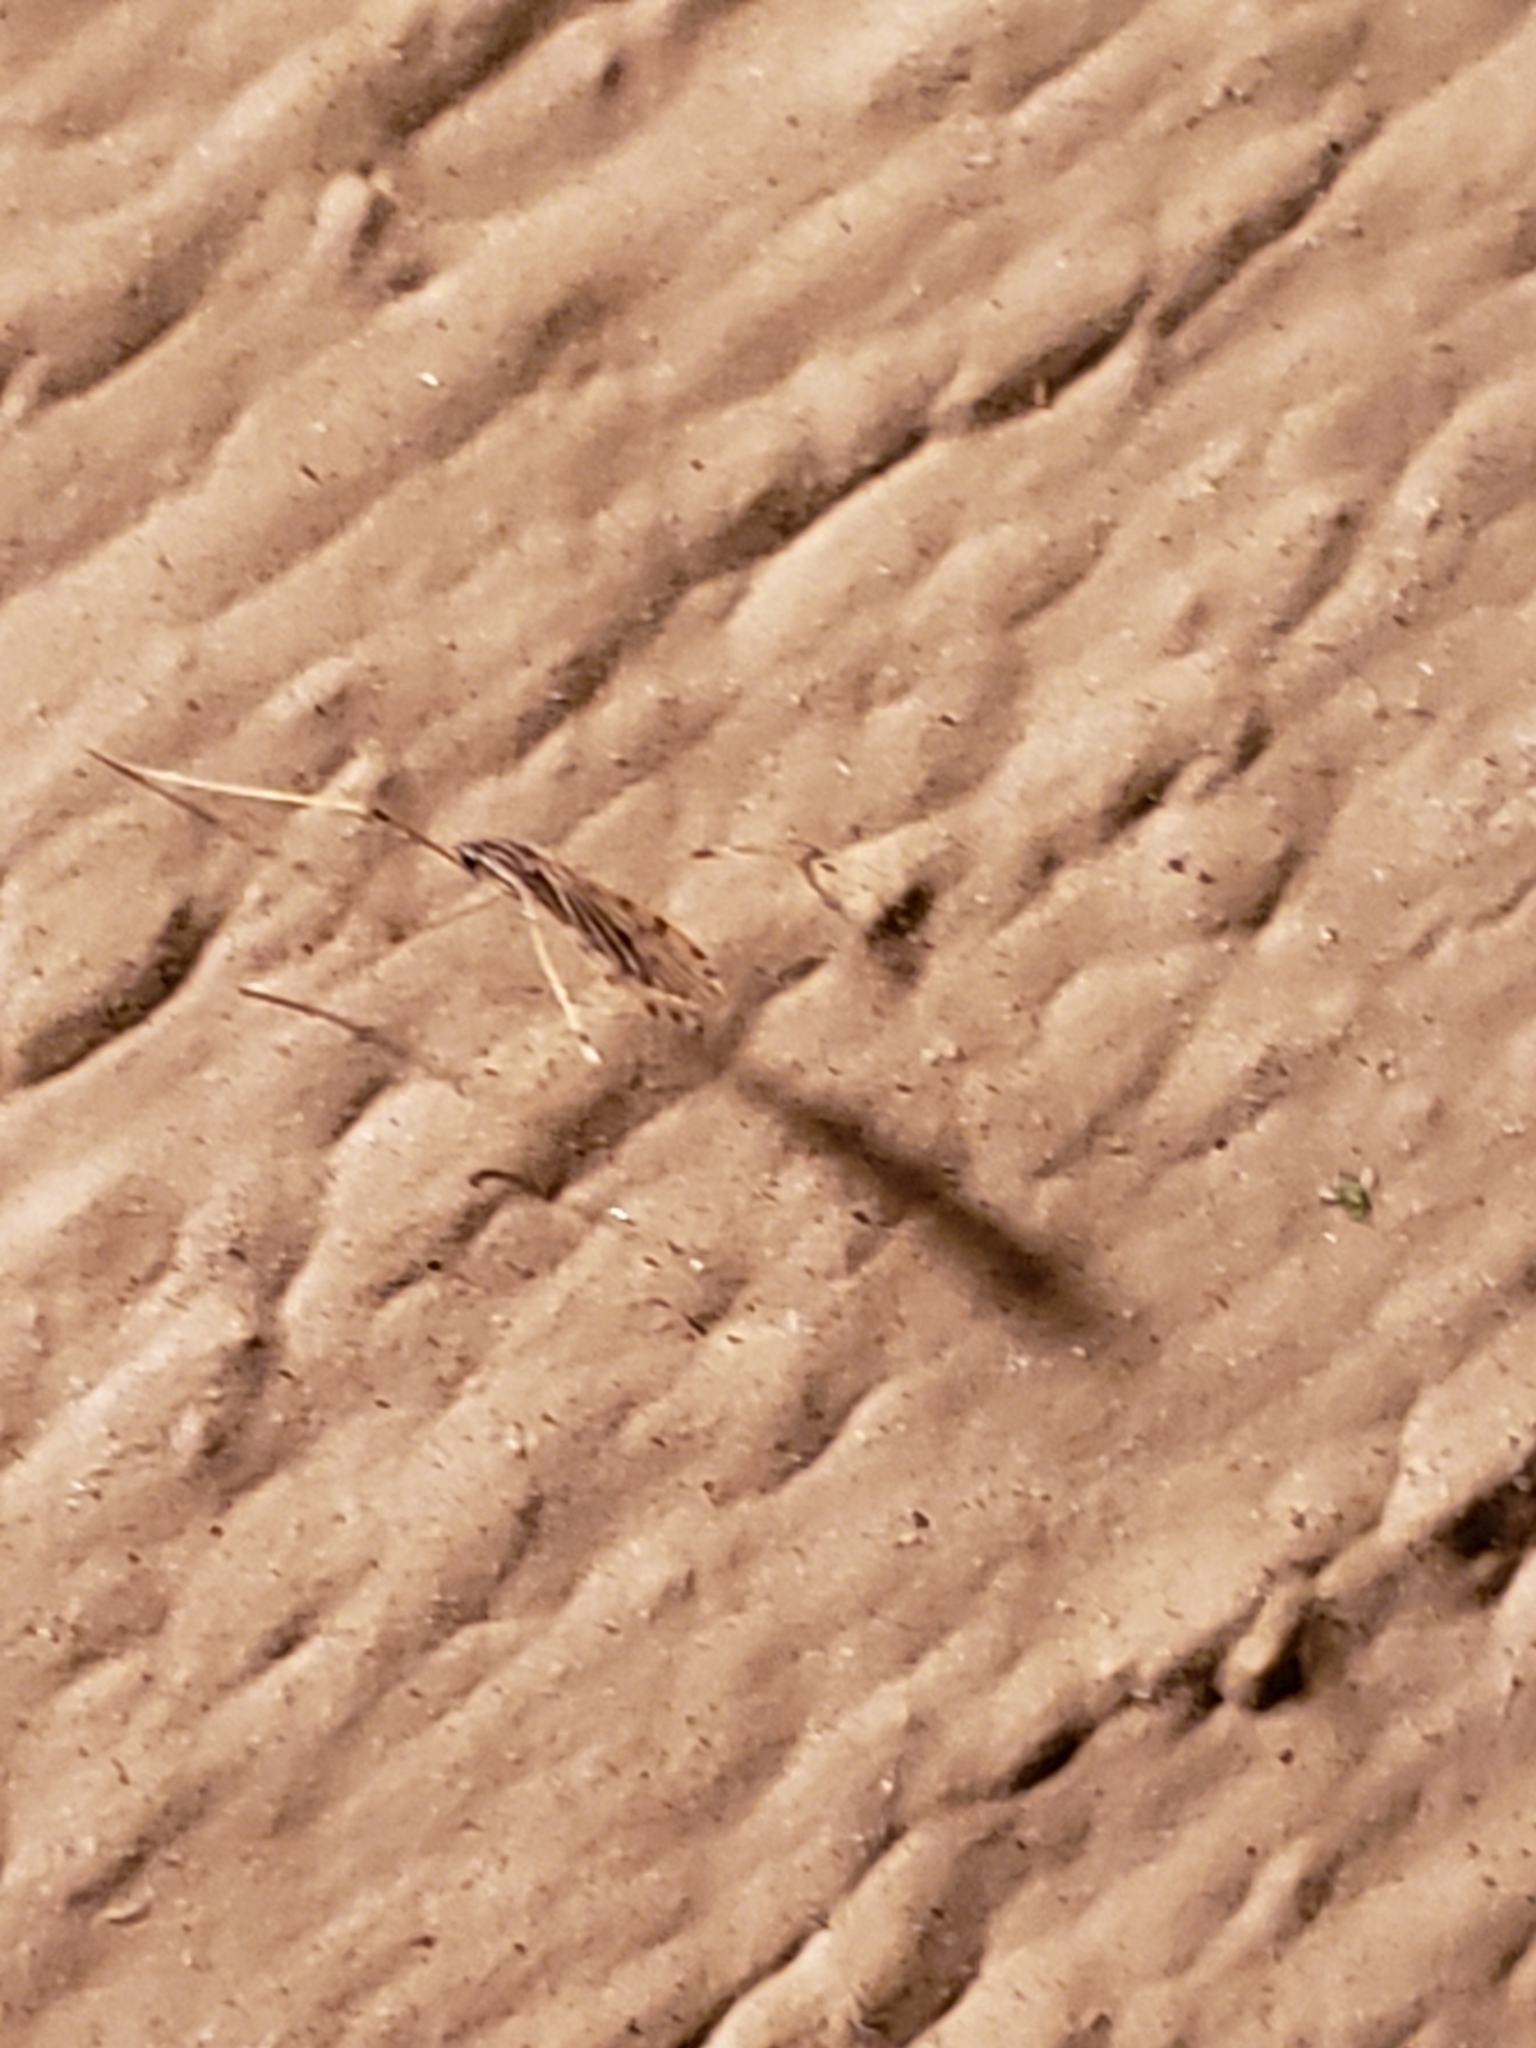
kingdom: Animalia
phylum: Arthropoda
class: Insecta
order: Diptera
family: Limoniidae
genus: Erioptera
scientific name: Erioptera parva
